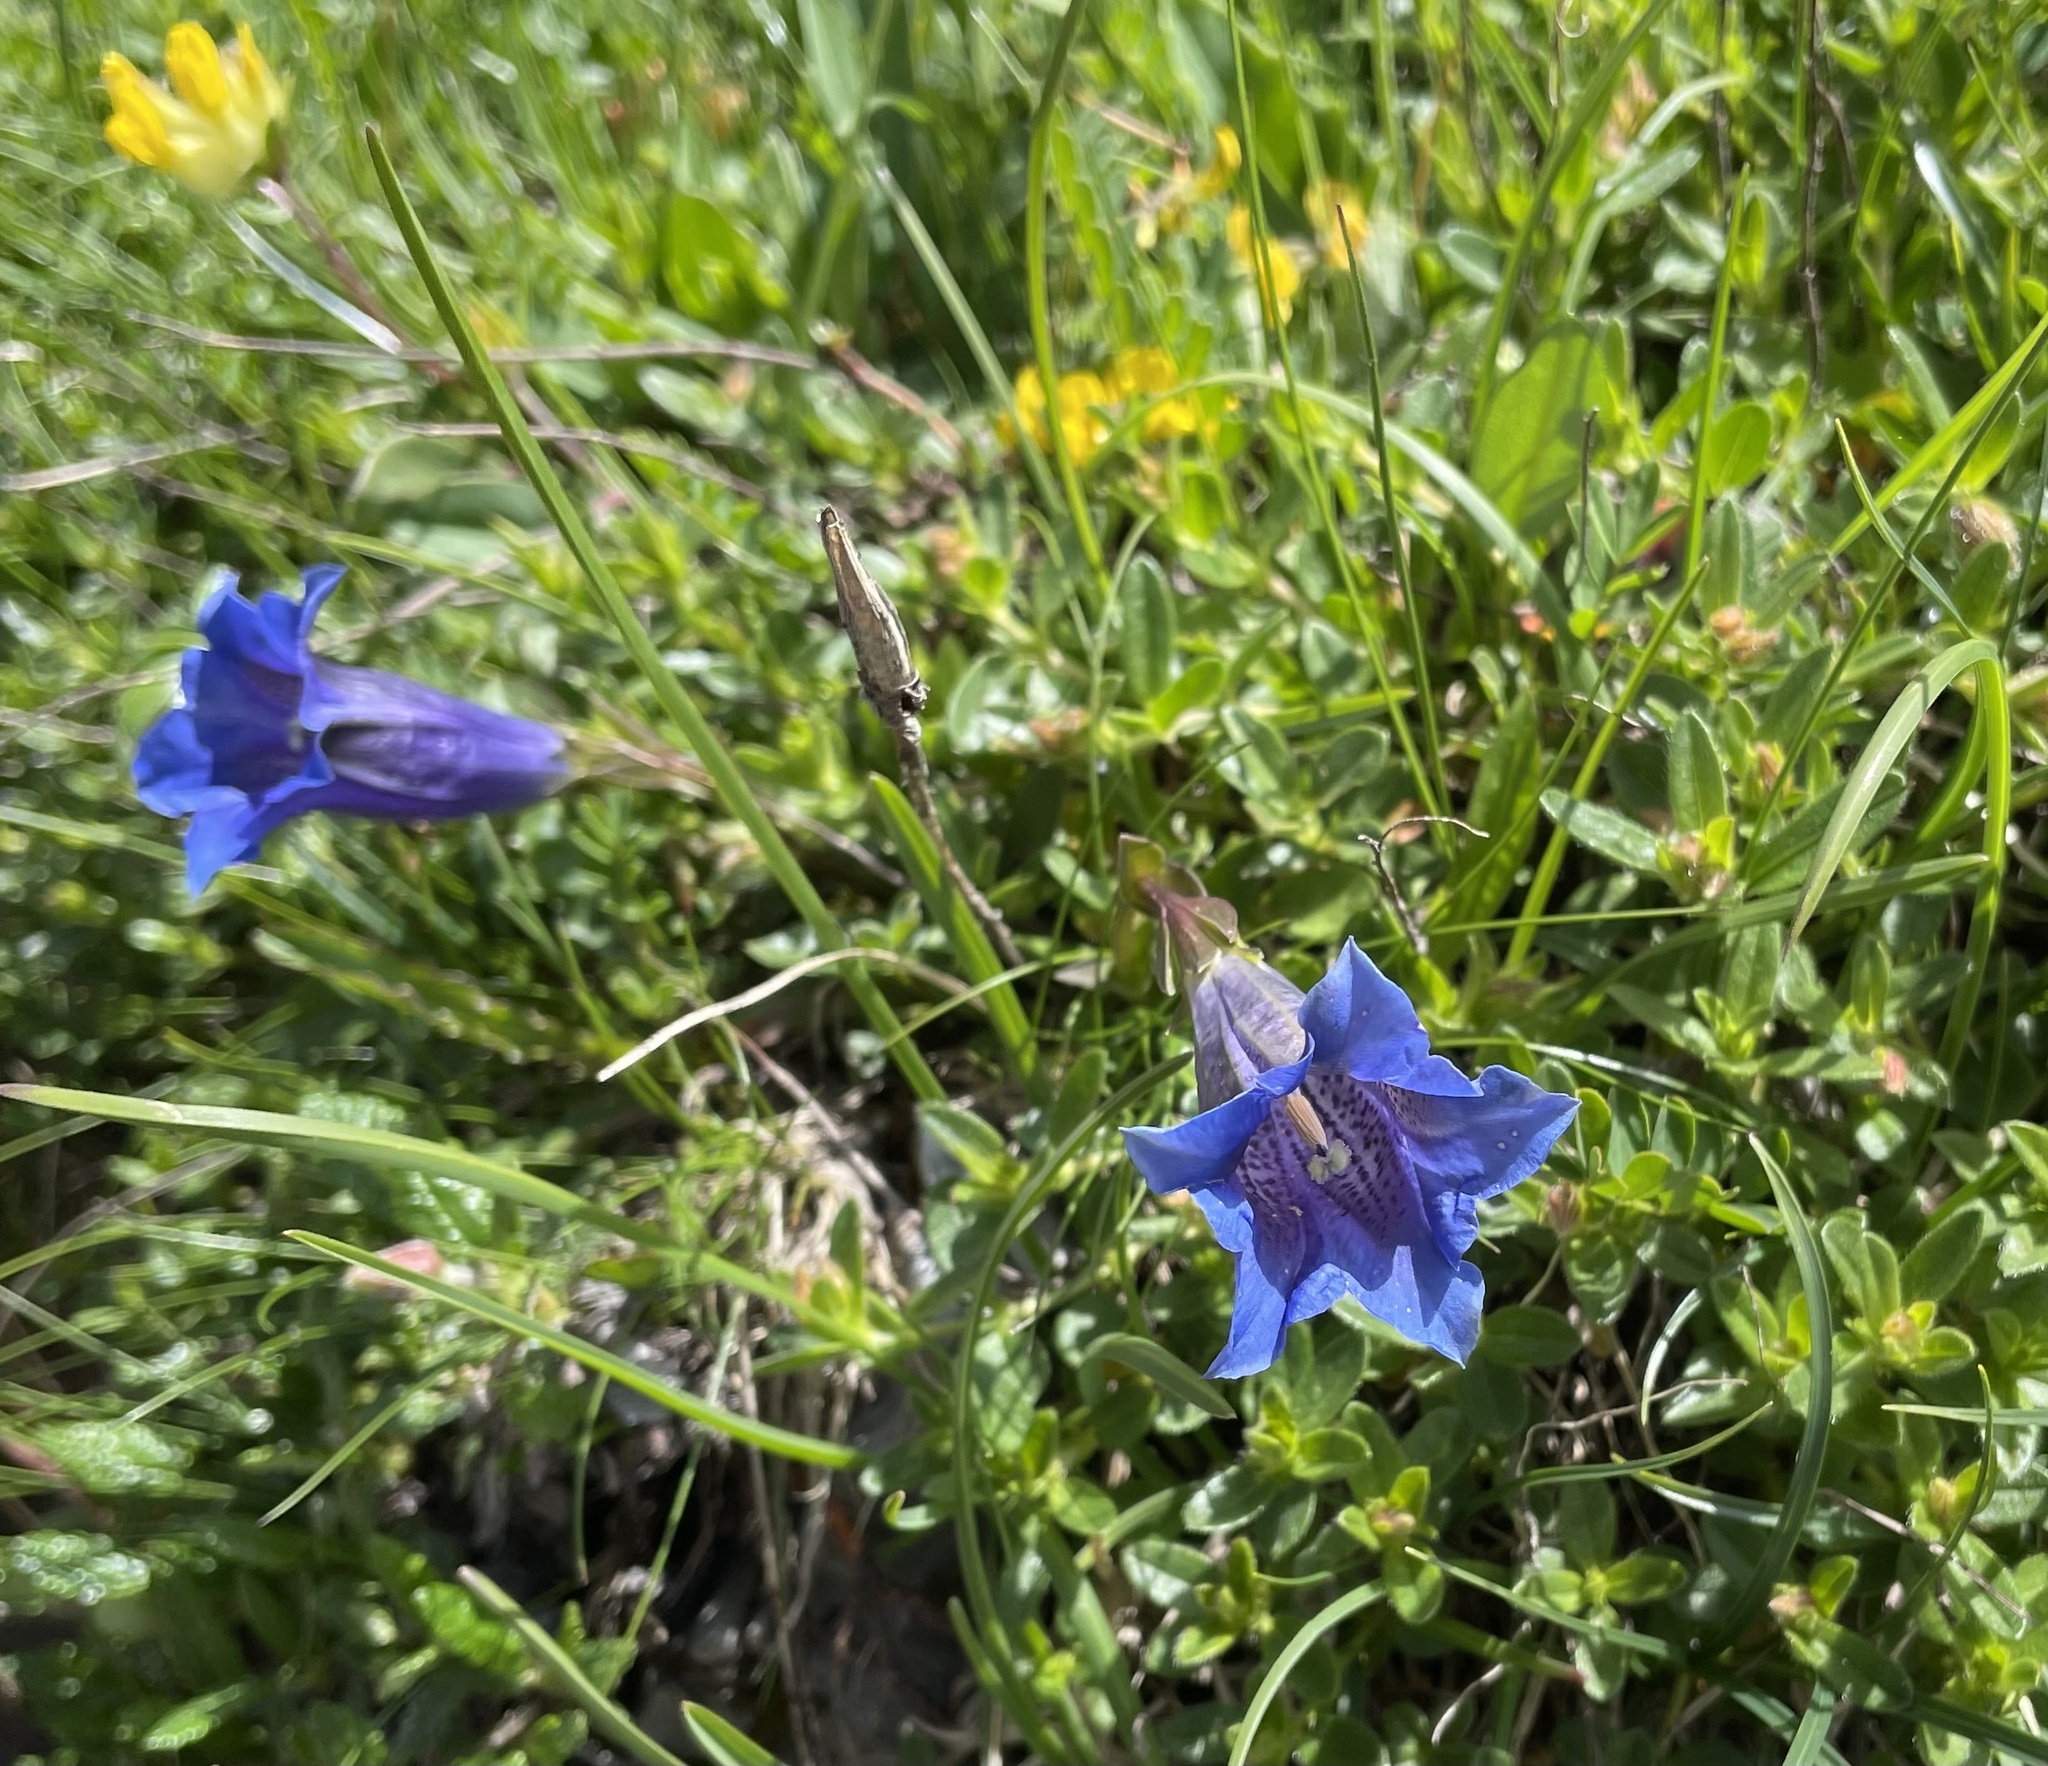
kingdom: Plantae
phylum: Tracheophyta
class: Magnoliopsida
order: Gentianales
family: Gentianaceae
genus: Gentiana
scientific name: Gentiana clusii
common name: Trumpet gentian
